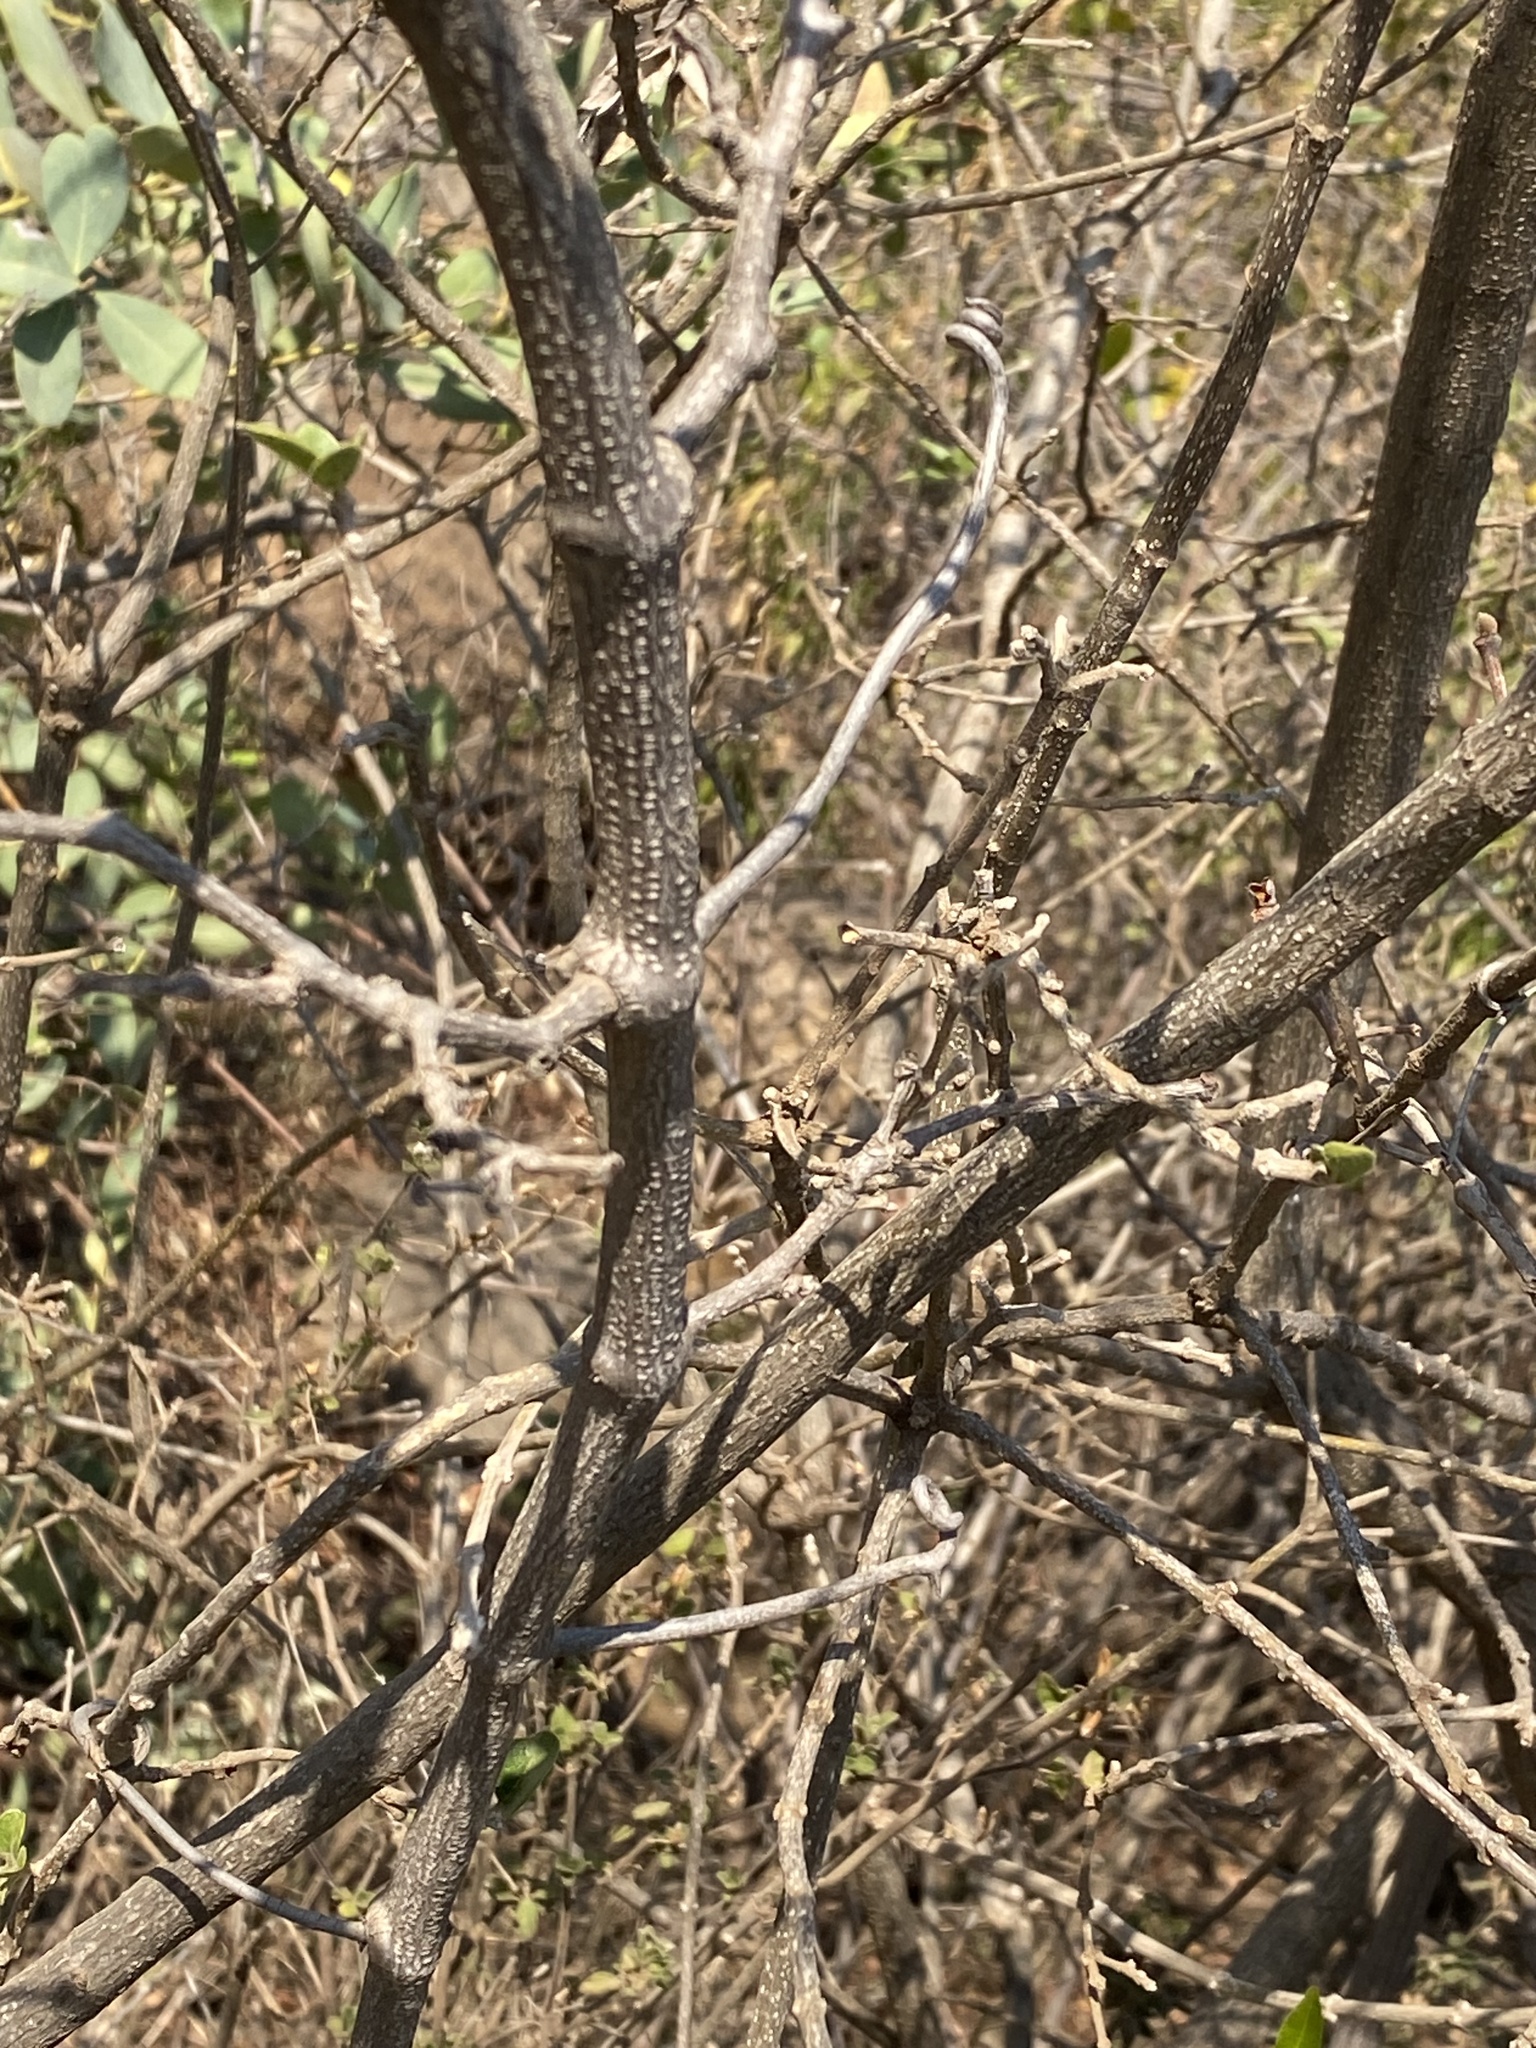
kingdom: Plantae
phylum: Tracheophyta
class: Magnoliopsida
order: Vitales
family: Vitaceae
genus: Rhoicissus
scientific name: Rhoicissus tridentata
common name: Common forest grape
